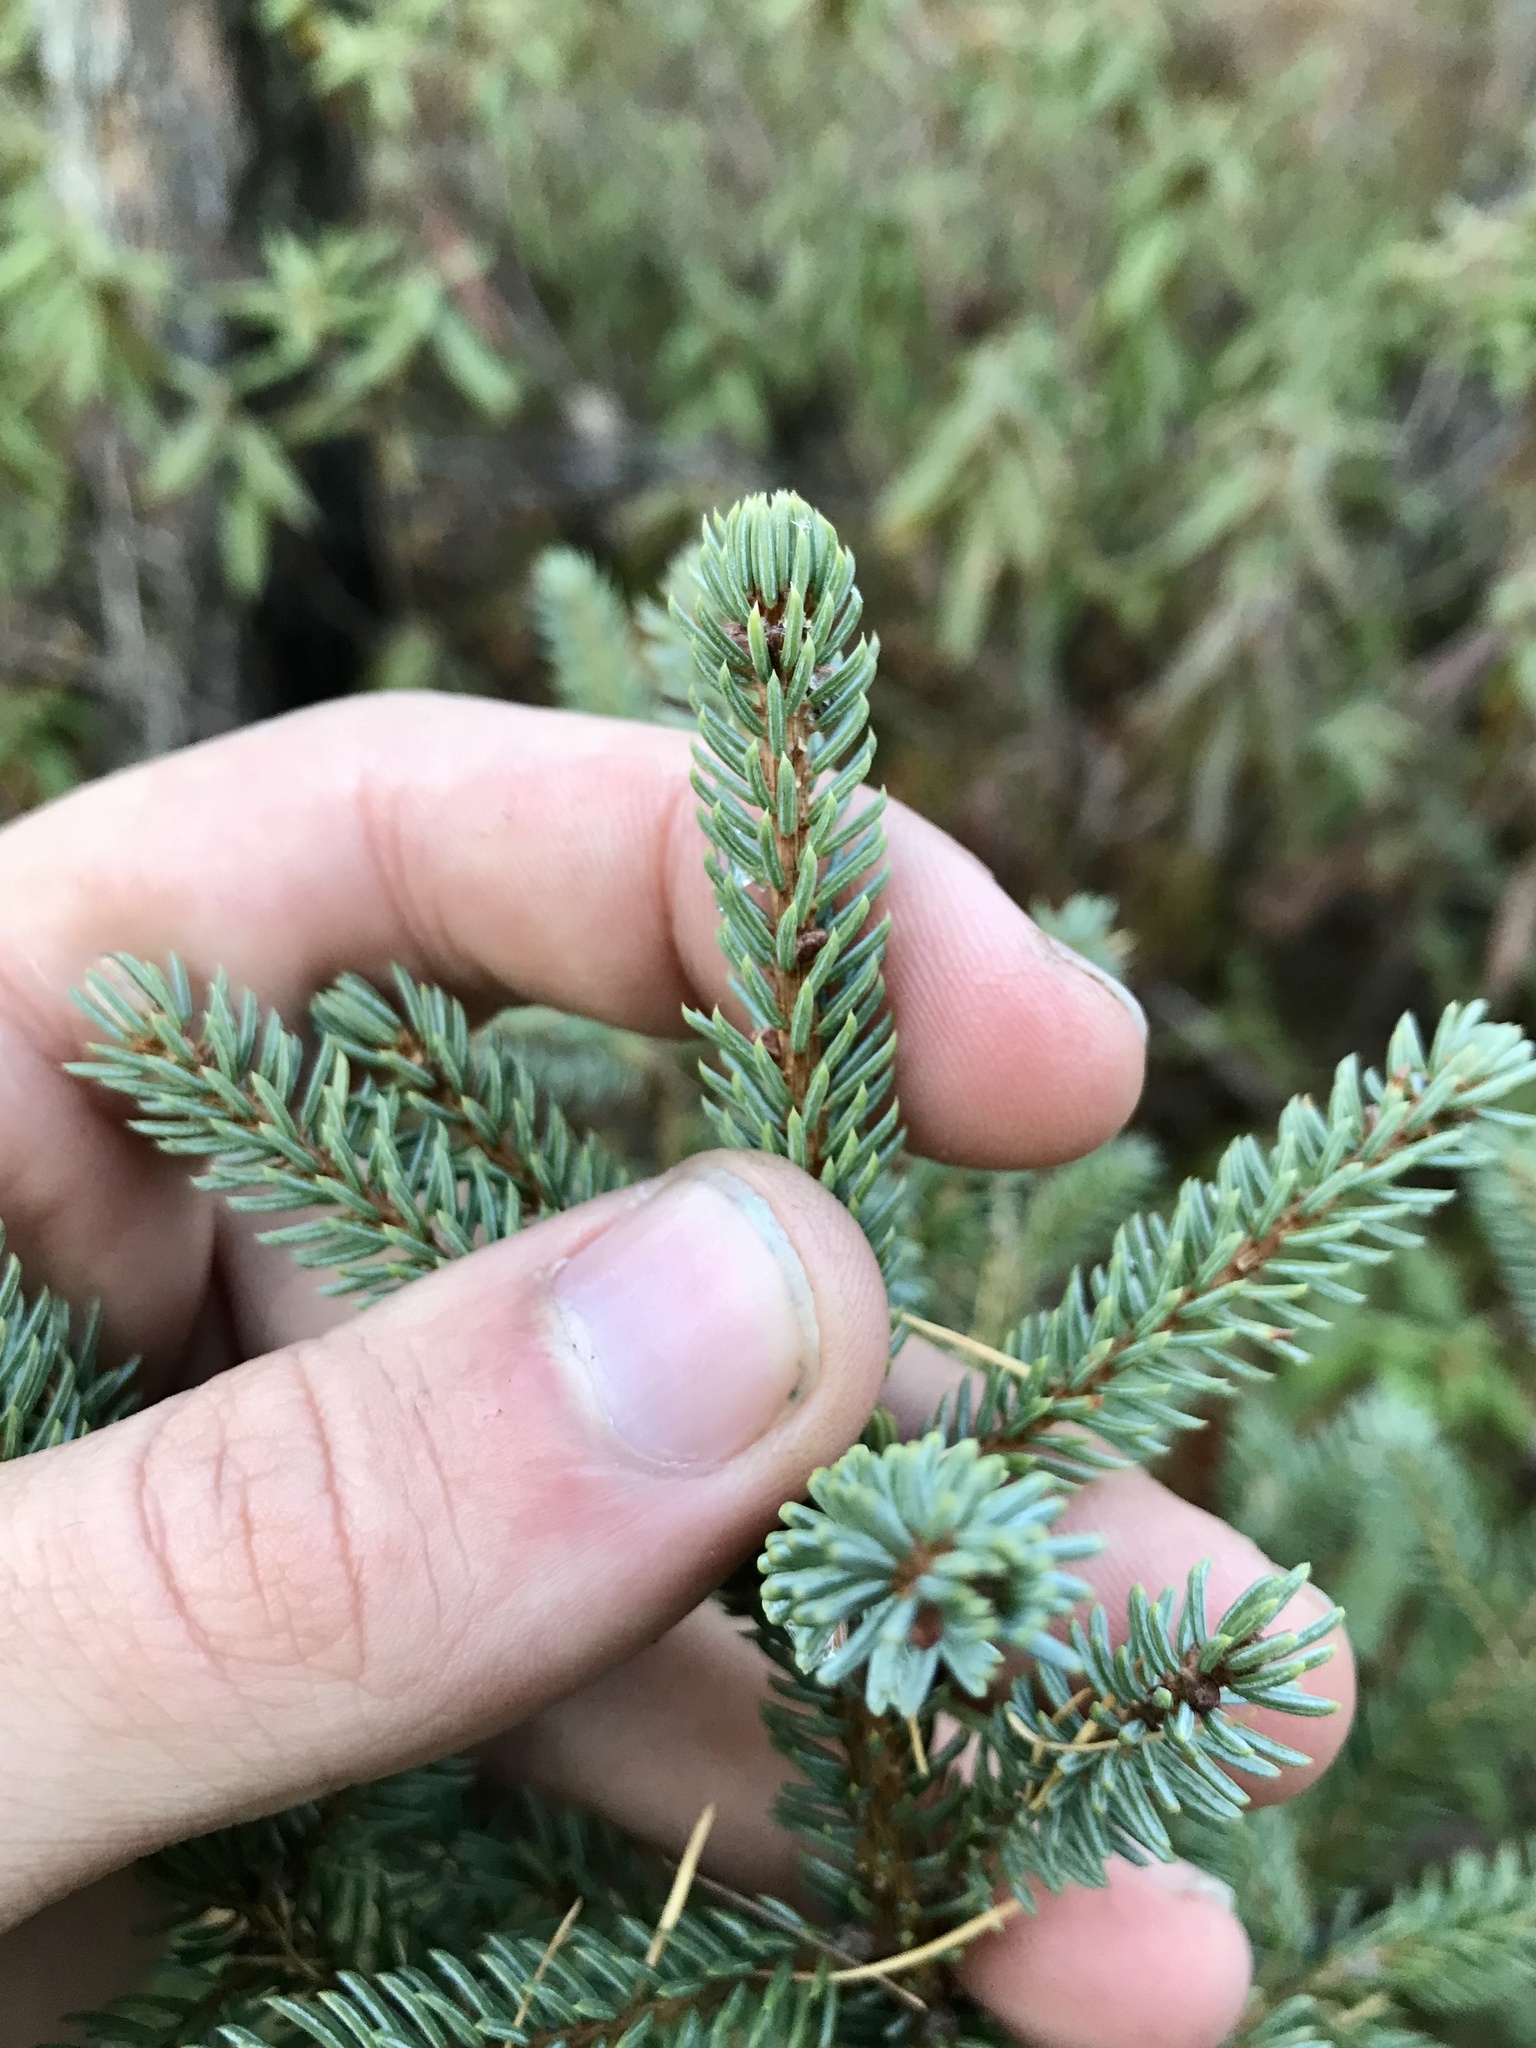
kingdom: Plantae
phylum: Tracheophyta
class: Pinopsida
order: Pinales
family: Pinaceae
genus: Picea
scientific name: Picea mariana
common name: Black spruce
